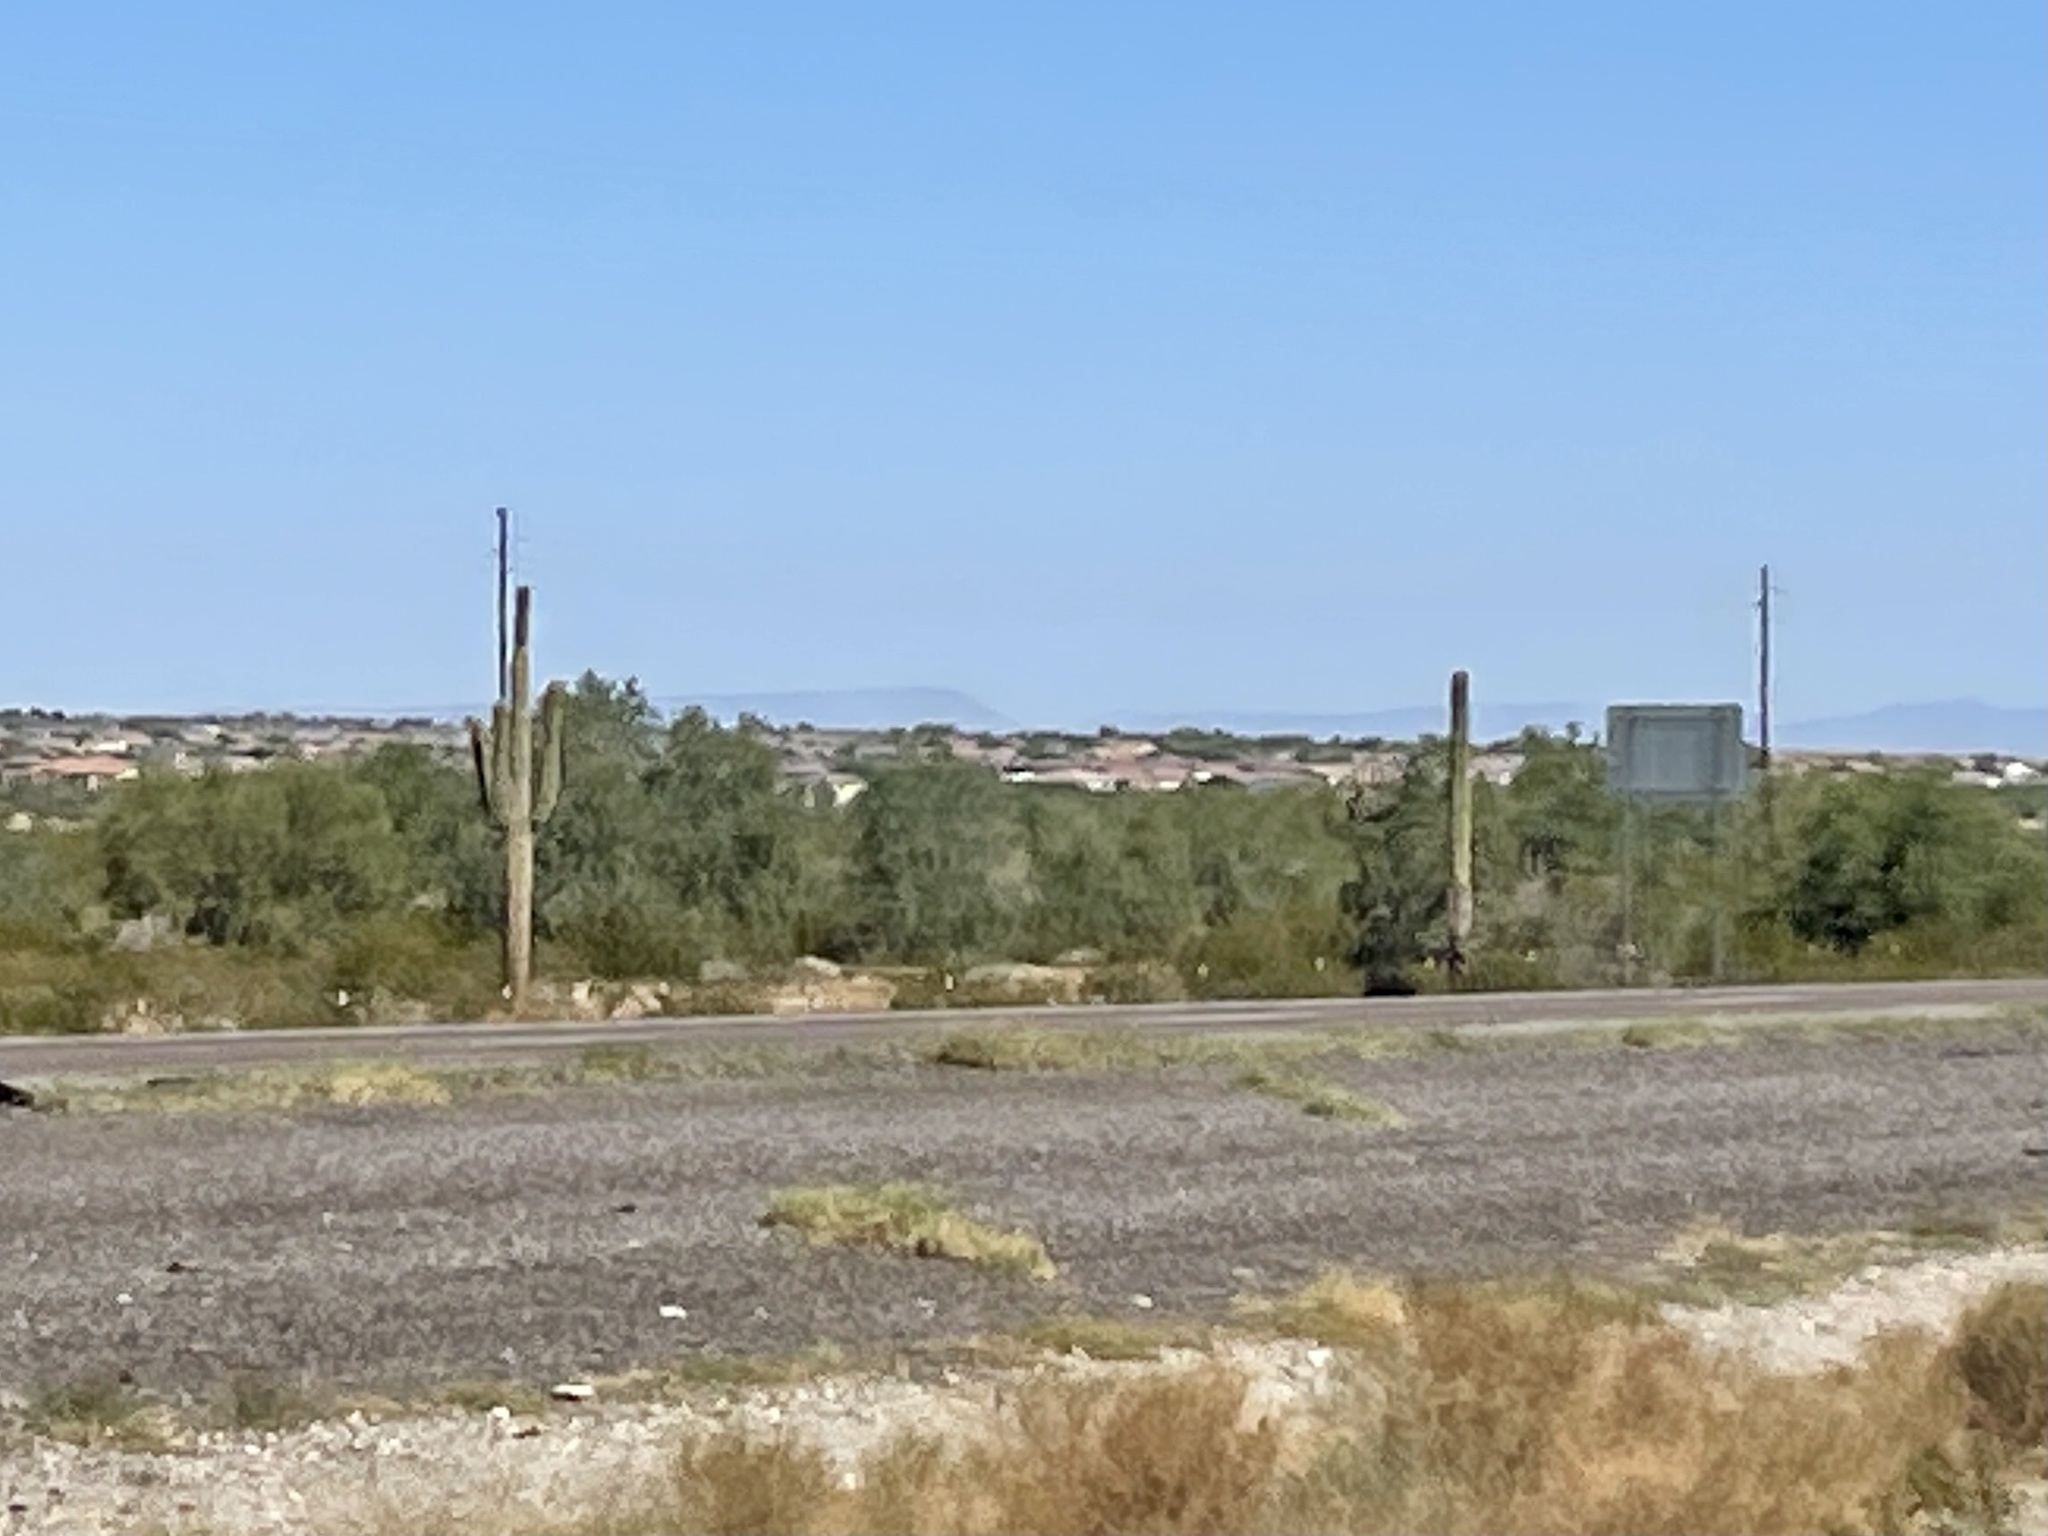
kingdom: Plantae
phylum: Tracheophyta
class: Magnoliopsida
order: Caryophyllales
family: Cactaceae
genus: Carnegiea
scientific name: Carnegiea gigantea
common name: Saguaro
